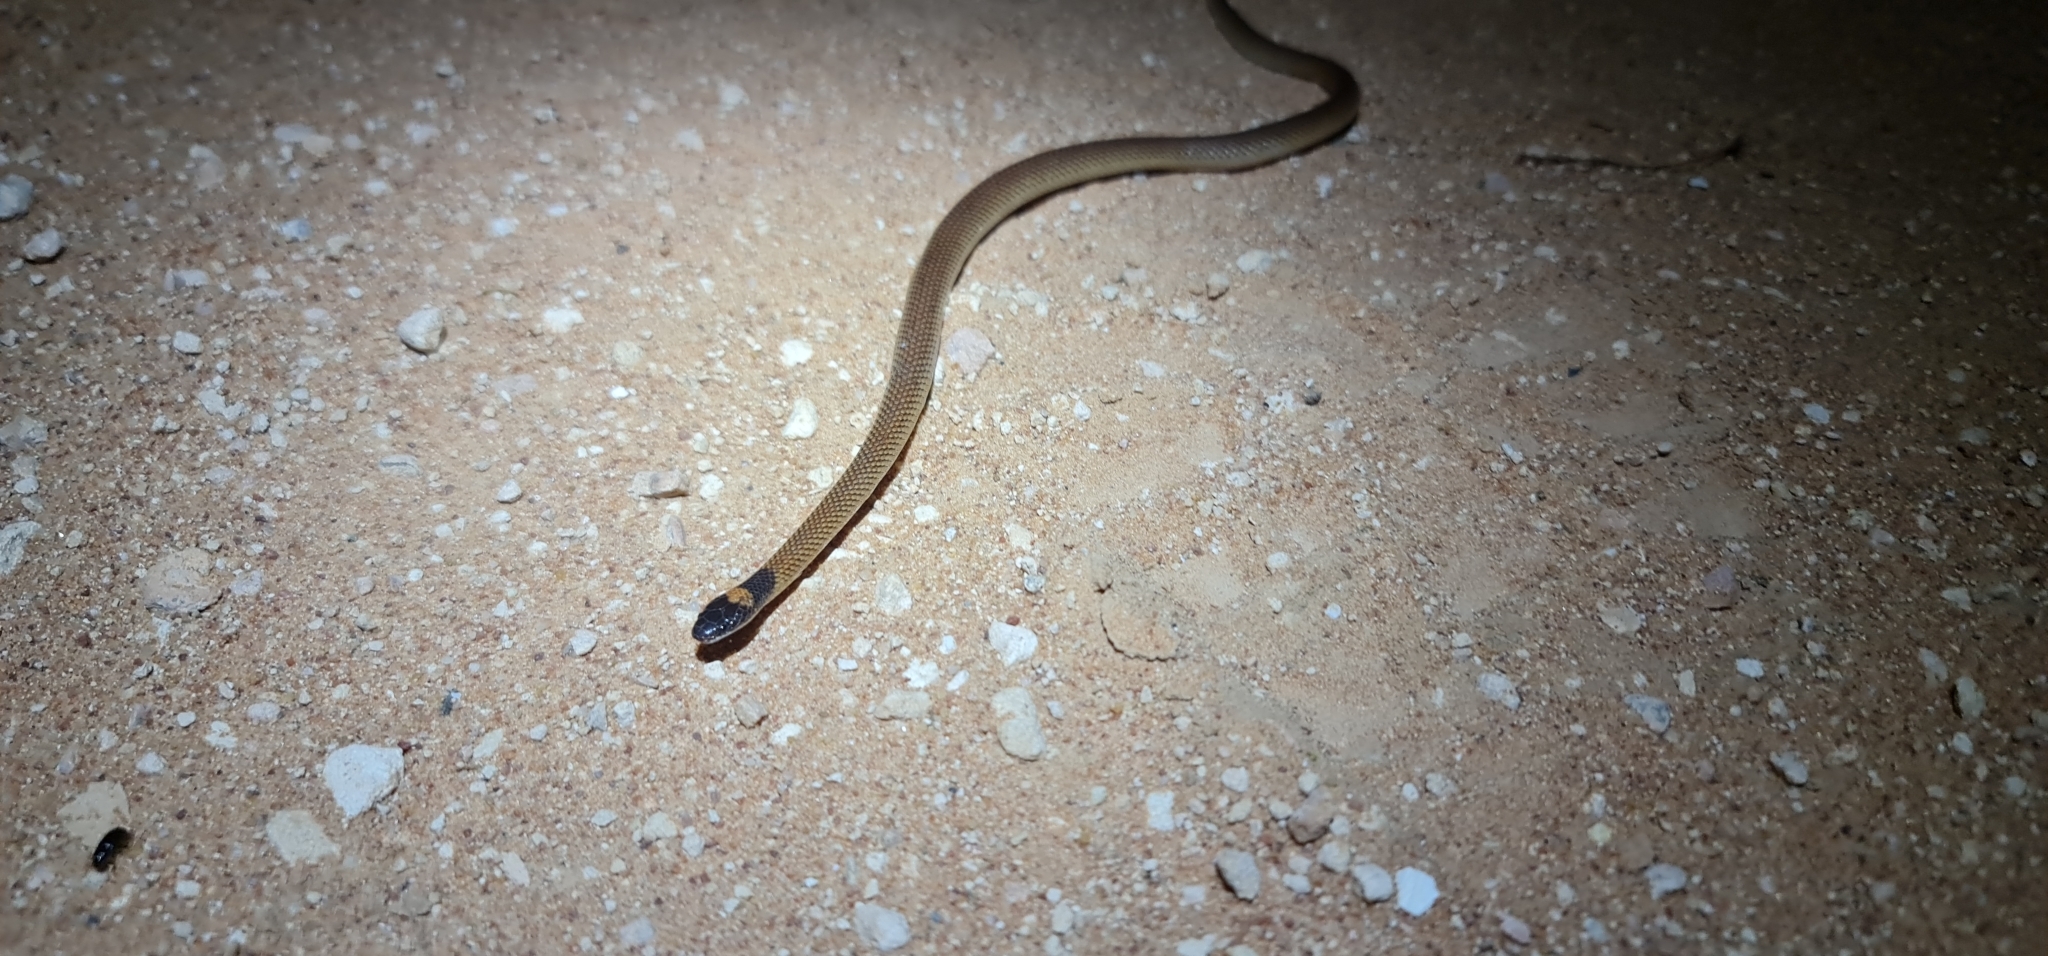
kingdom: Animalia
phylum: Chordata
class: Squamata
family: Elapidae
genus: Furina
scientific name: Furina diadema
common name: Red-naped snake
